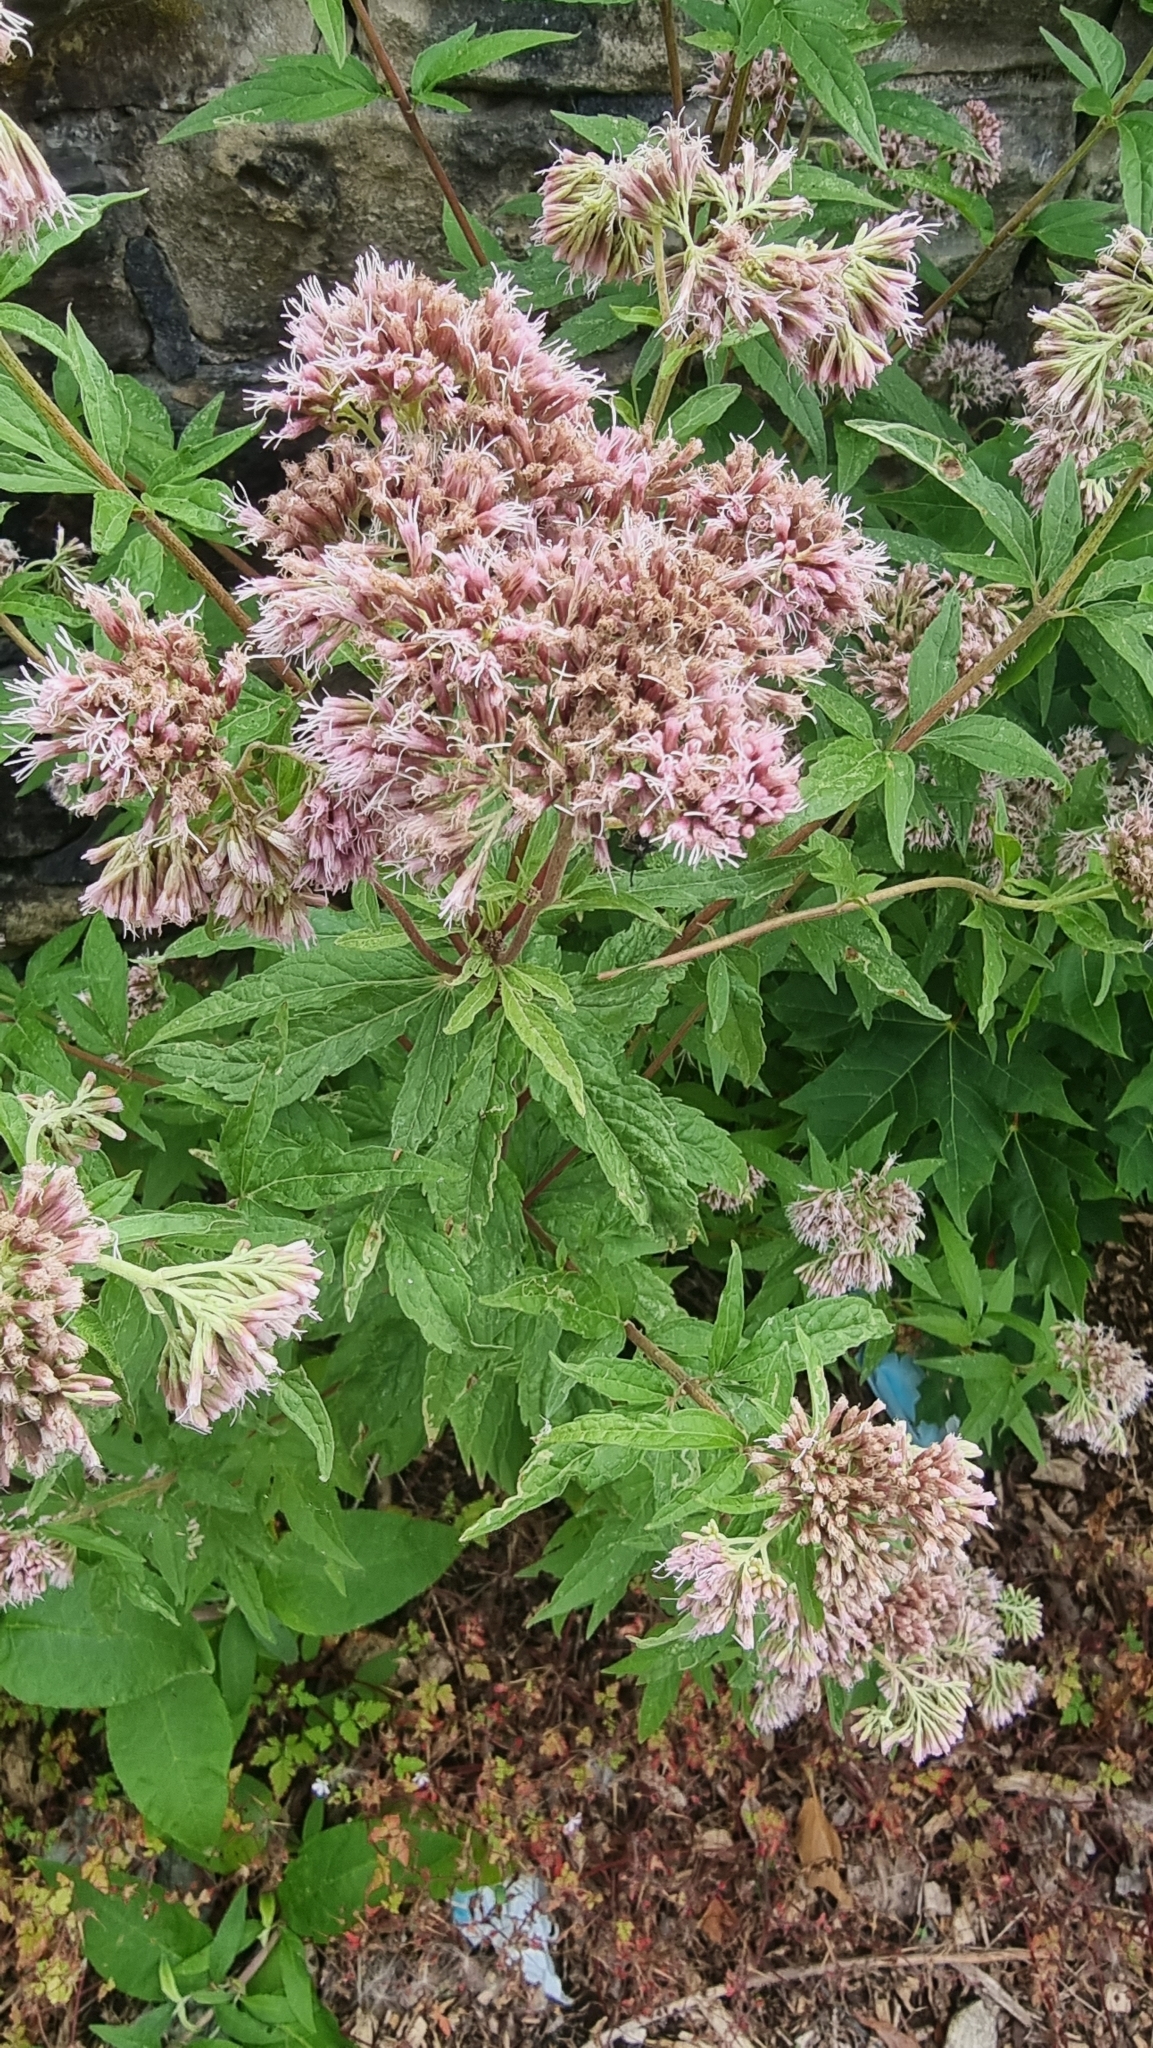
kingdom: Plantae
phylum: Tracheophyta
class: Magnoliopsida
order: Asterales
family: Asteraceae
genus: Eupatorium
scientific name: Eupatorium cannabinum
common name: Hemp-agrimony
